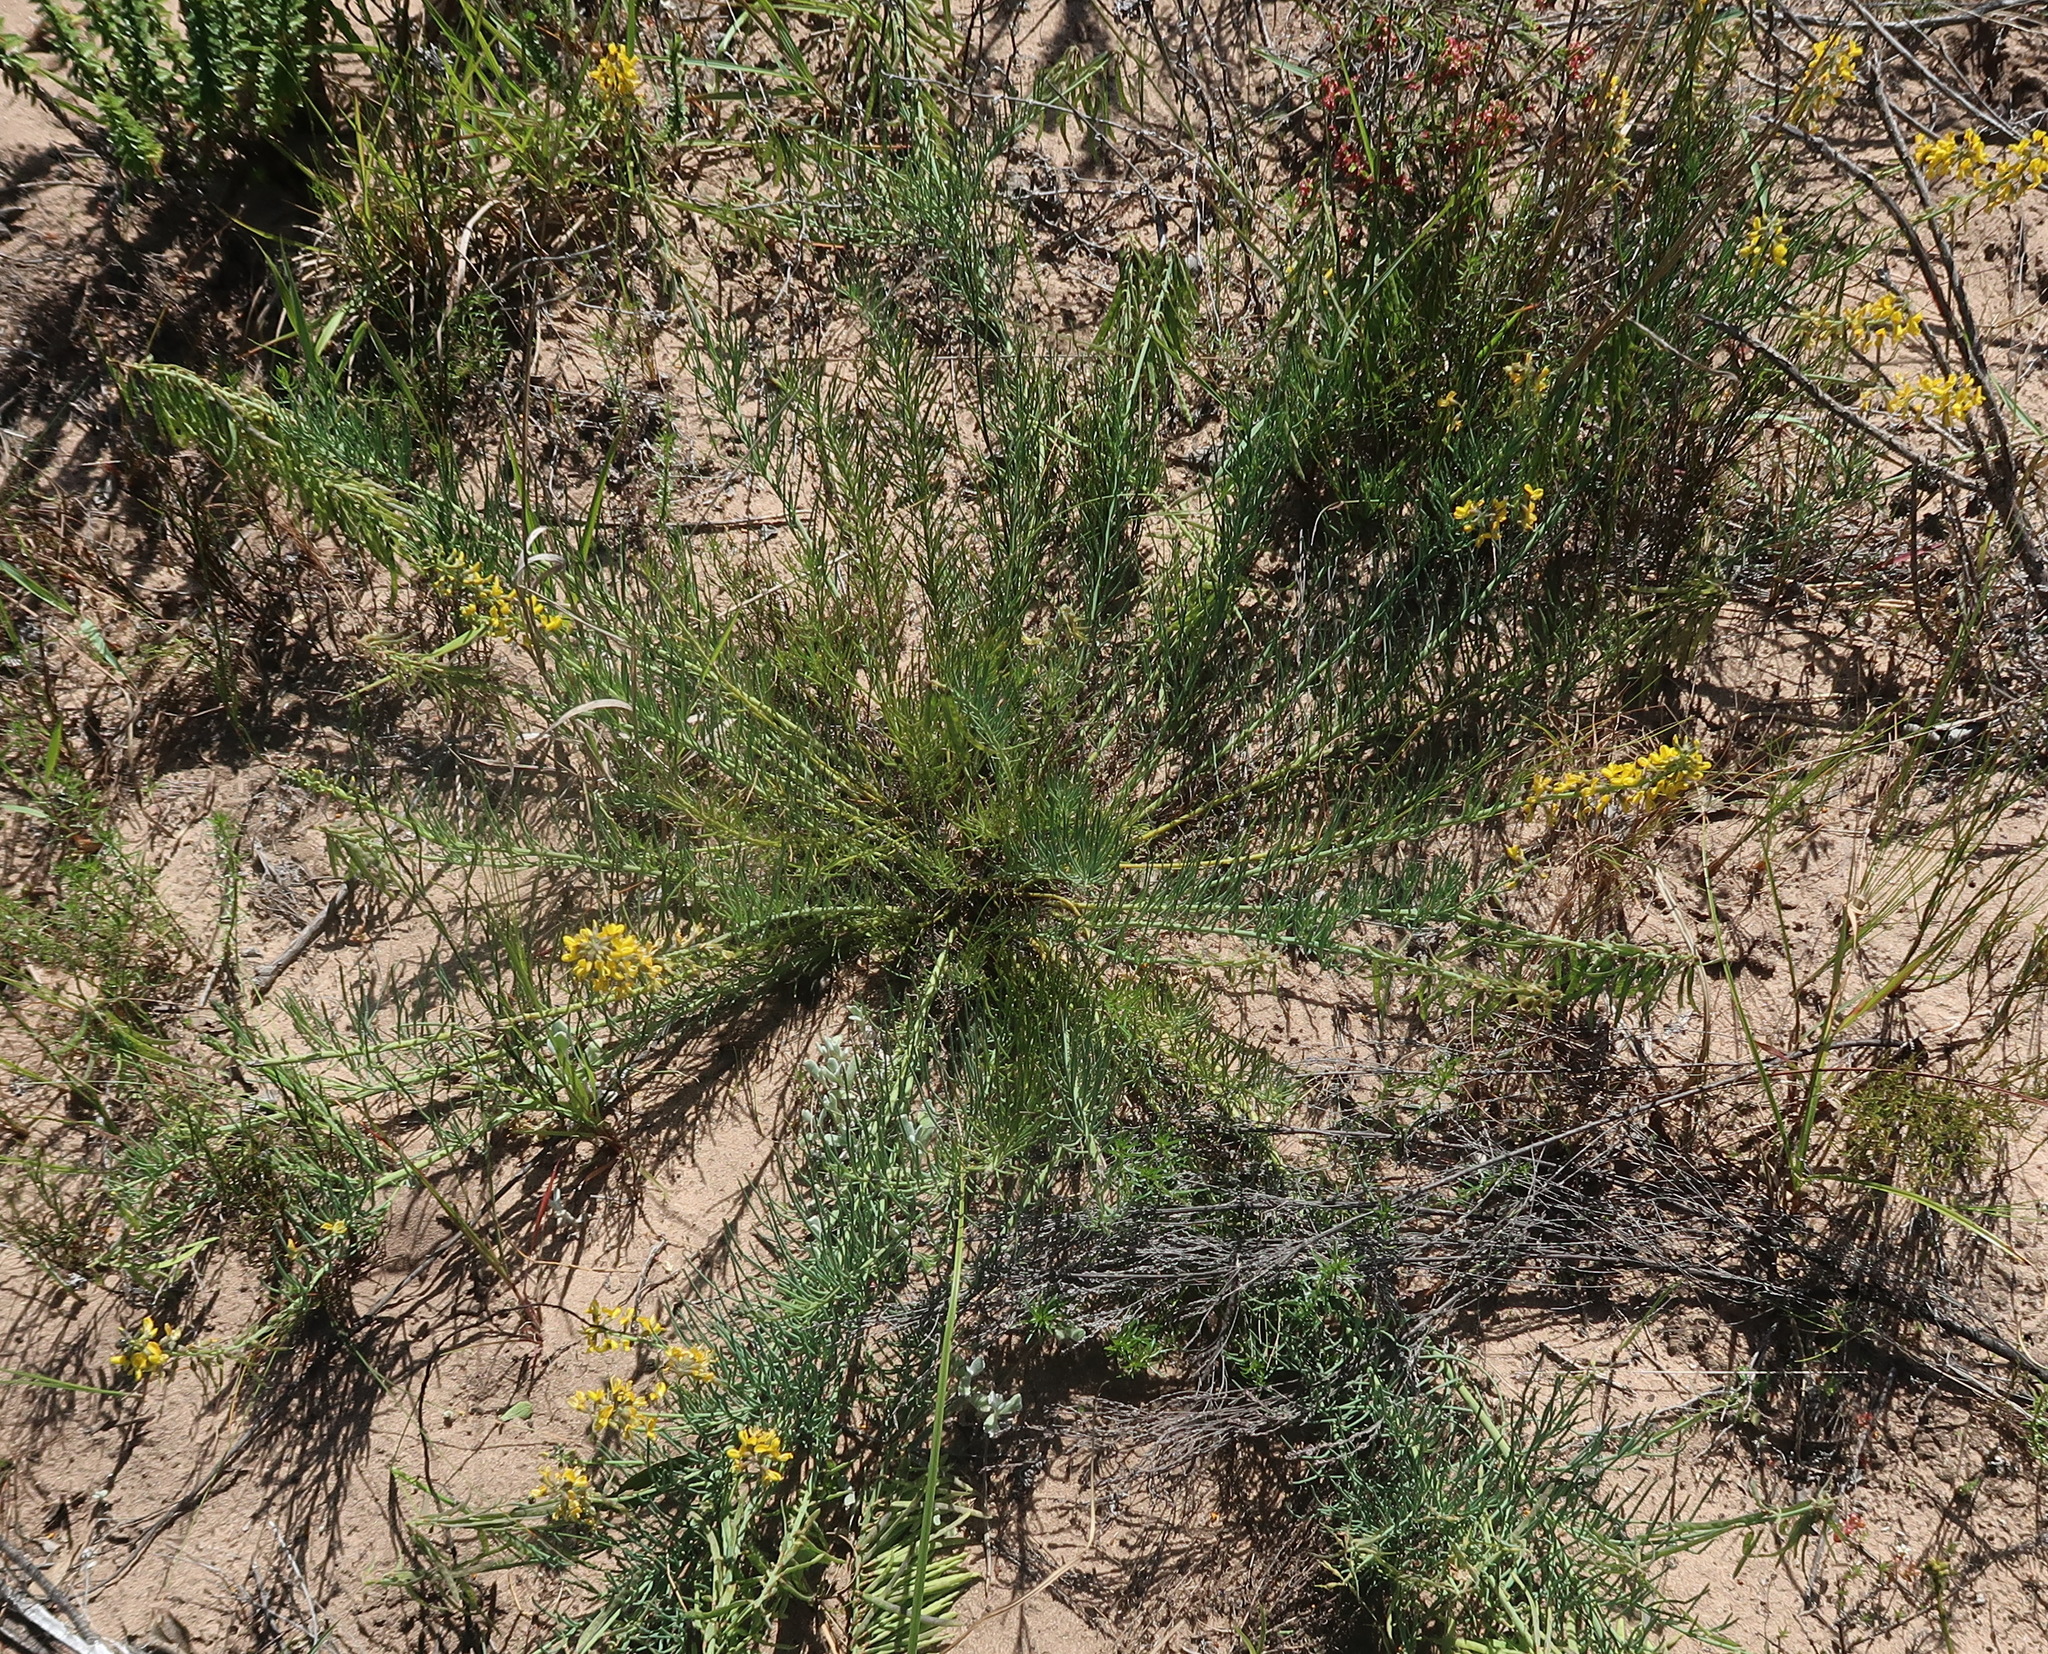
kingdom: Plantae
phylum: Tracheophyta
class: Magnoliopsida
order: Fabales
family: Fabaceae
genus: Lebeckia
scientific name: Lebeckia gracilis
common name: Slender ganna
